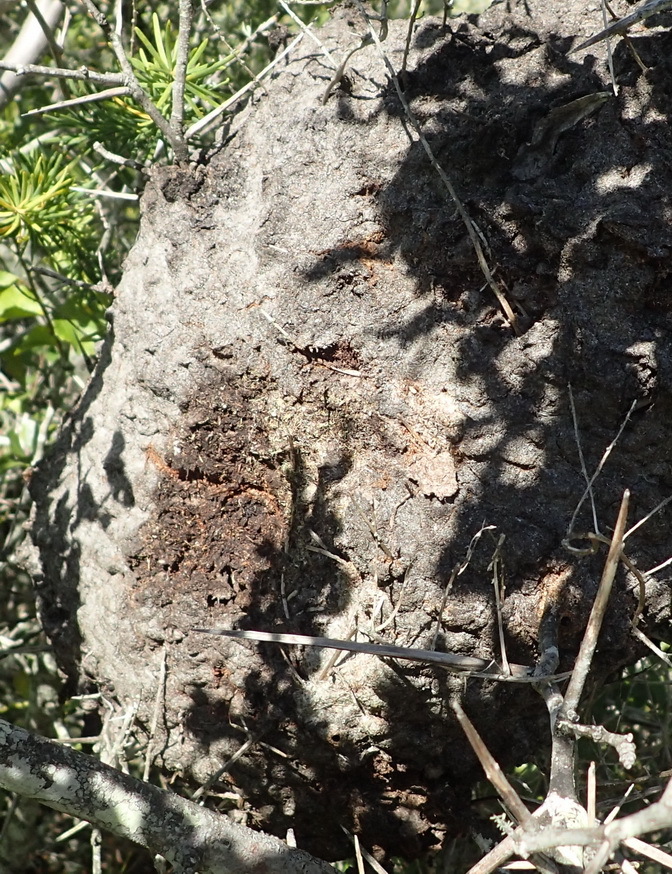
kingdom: Animalia
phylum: Arthropoda
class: Insecta
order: Hymenoptera
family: Formicidae
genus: Crematogaster
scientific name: Crematogaster peringueyi
